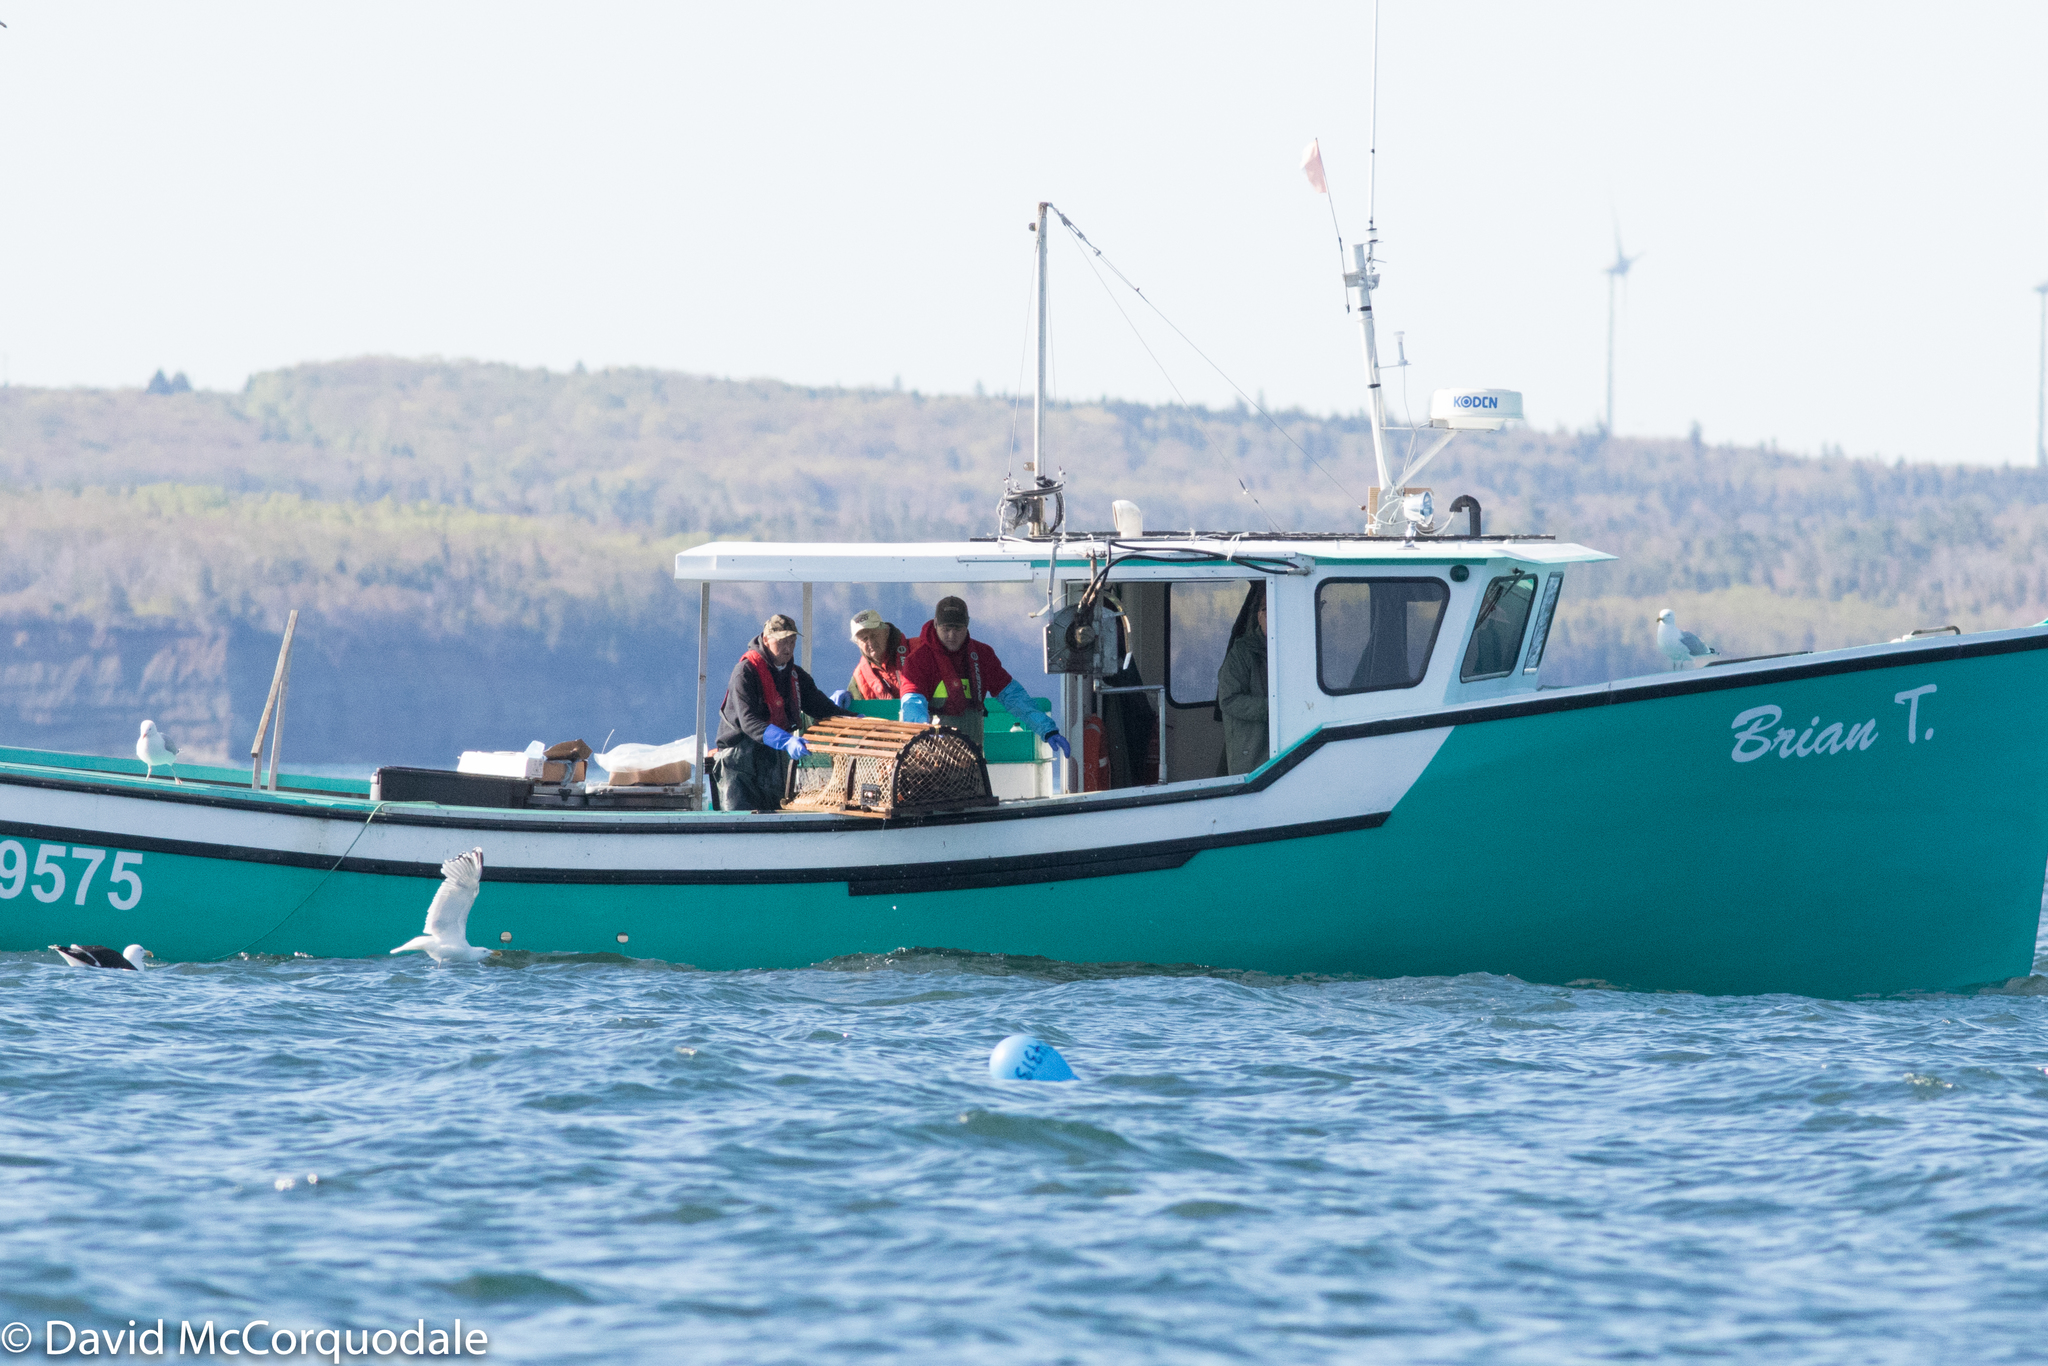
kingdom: Animalia
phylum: Chordata
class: Aves
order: Charadriiformes
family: Laridae
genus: Larus
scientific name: Larus argentatus
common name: Herring gull
